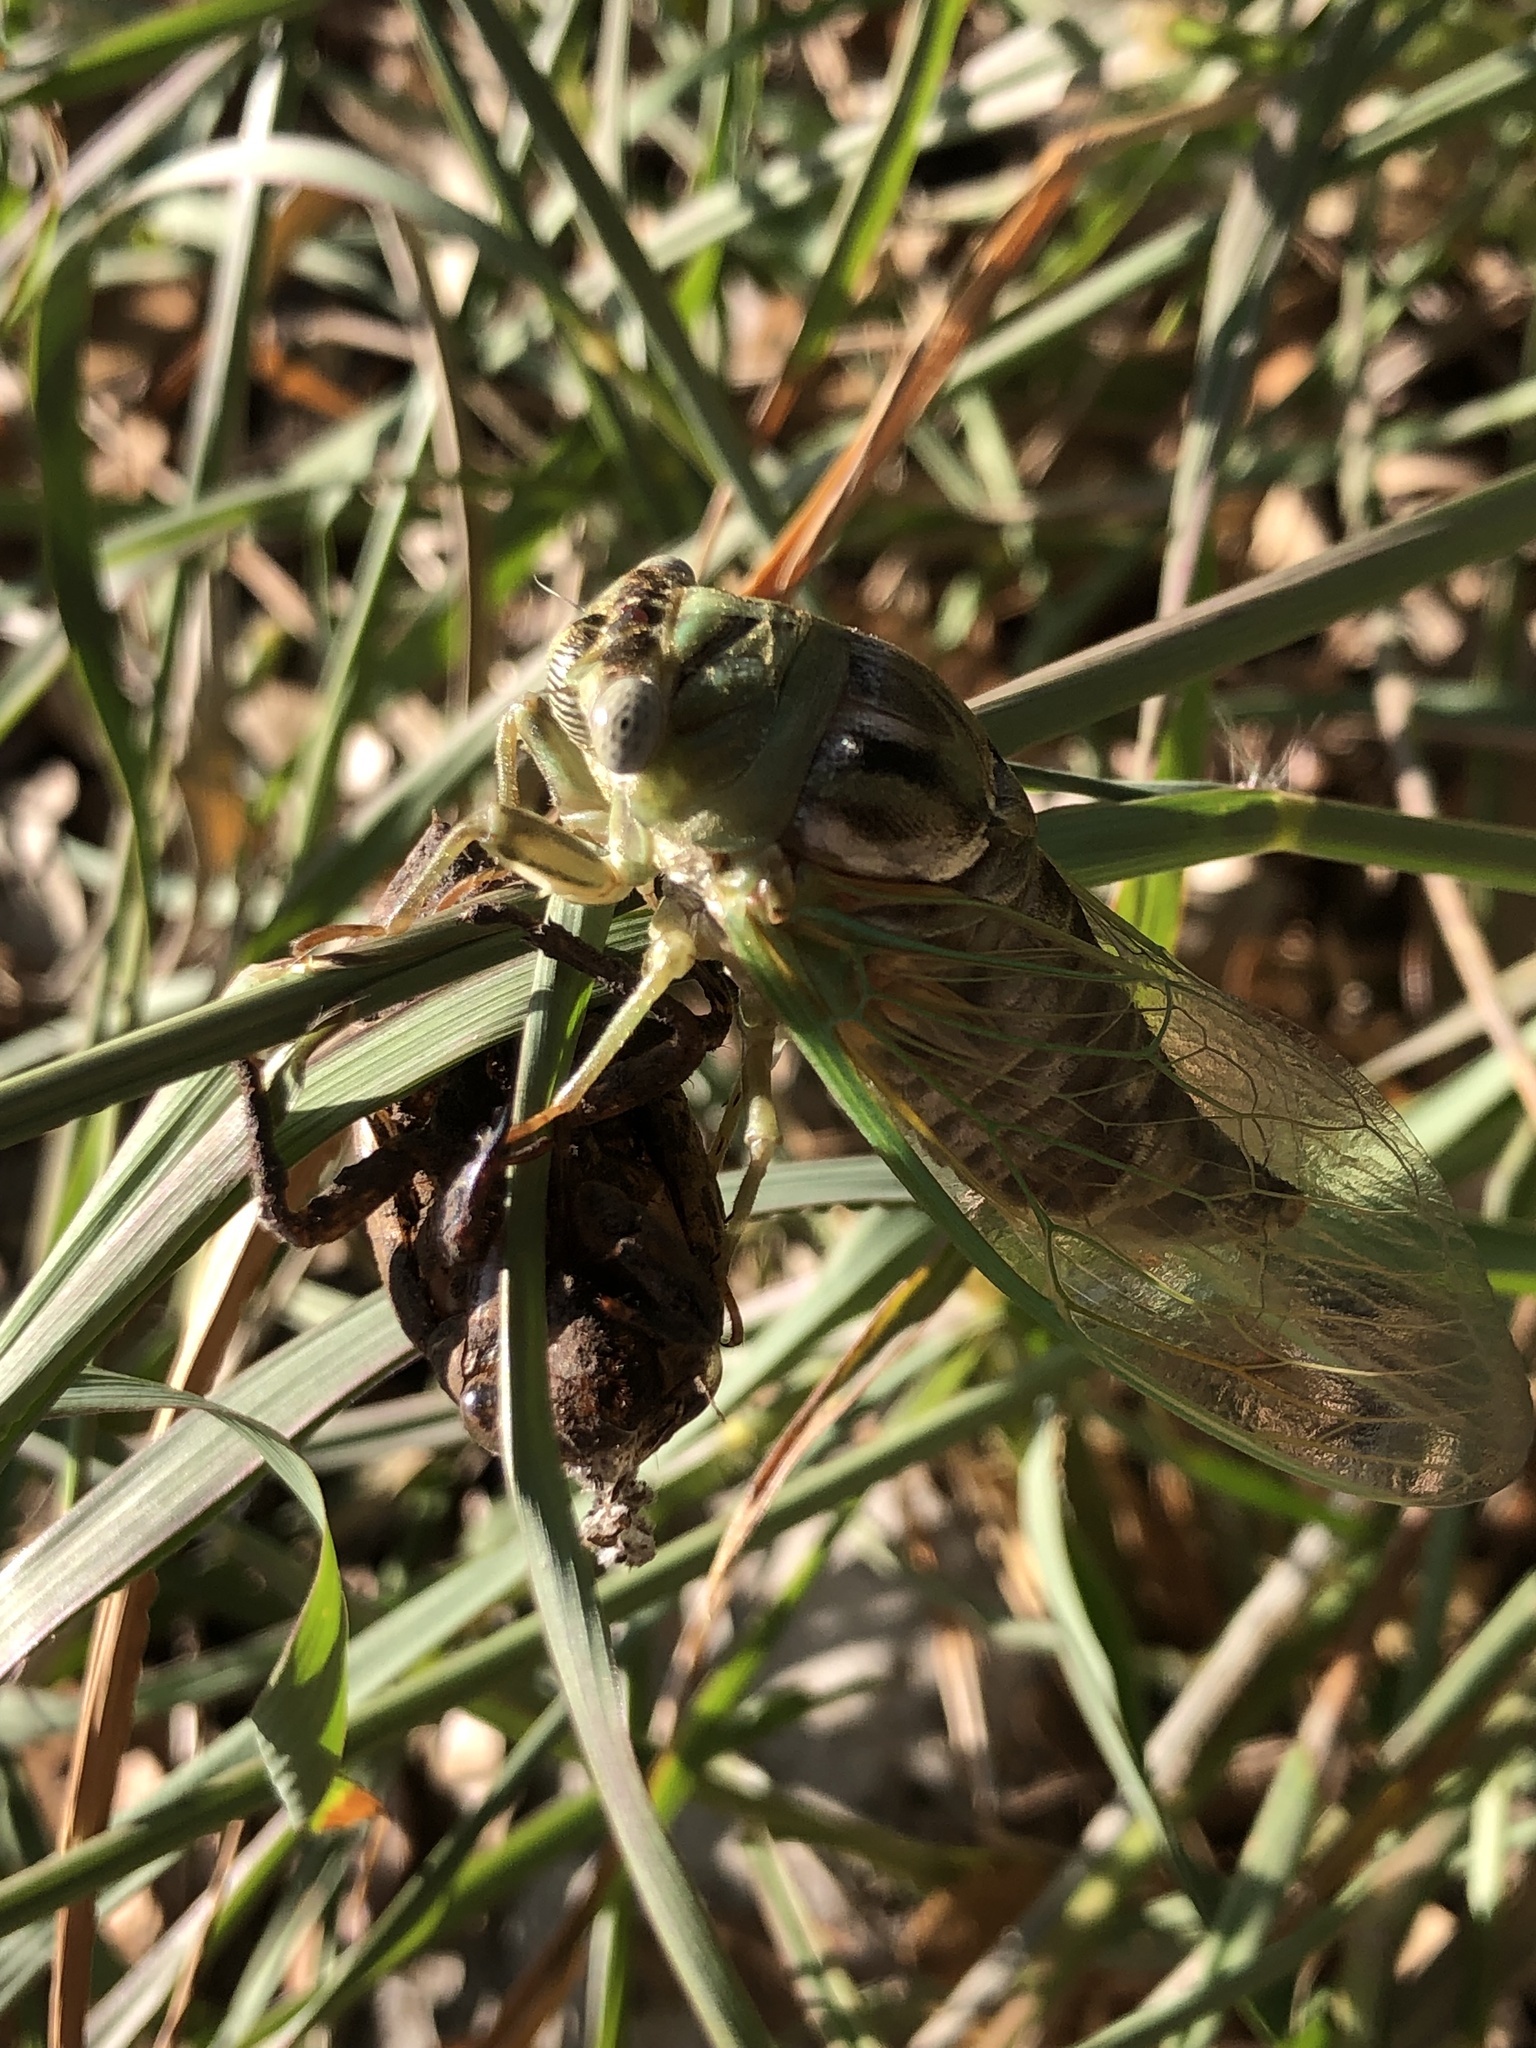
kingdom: Animalia
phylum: Arthropoda
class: Insecta
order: Hemiptera
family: Cicadidae
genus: Megatibicen
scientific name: Megatibicen resh
